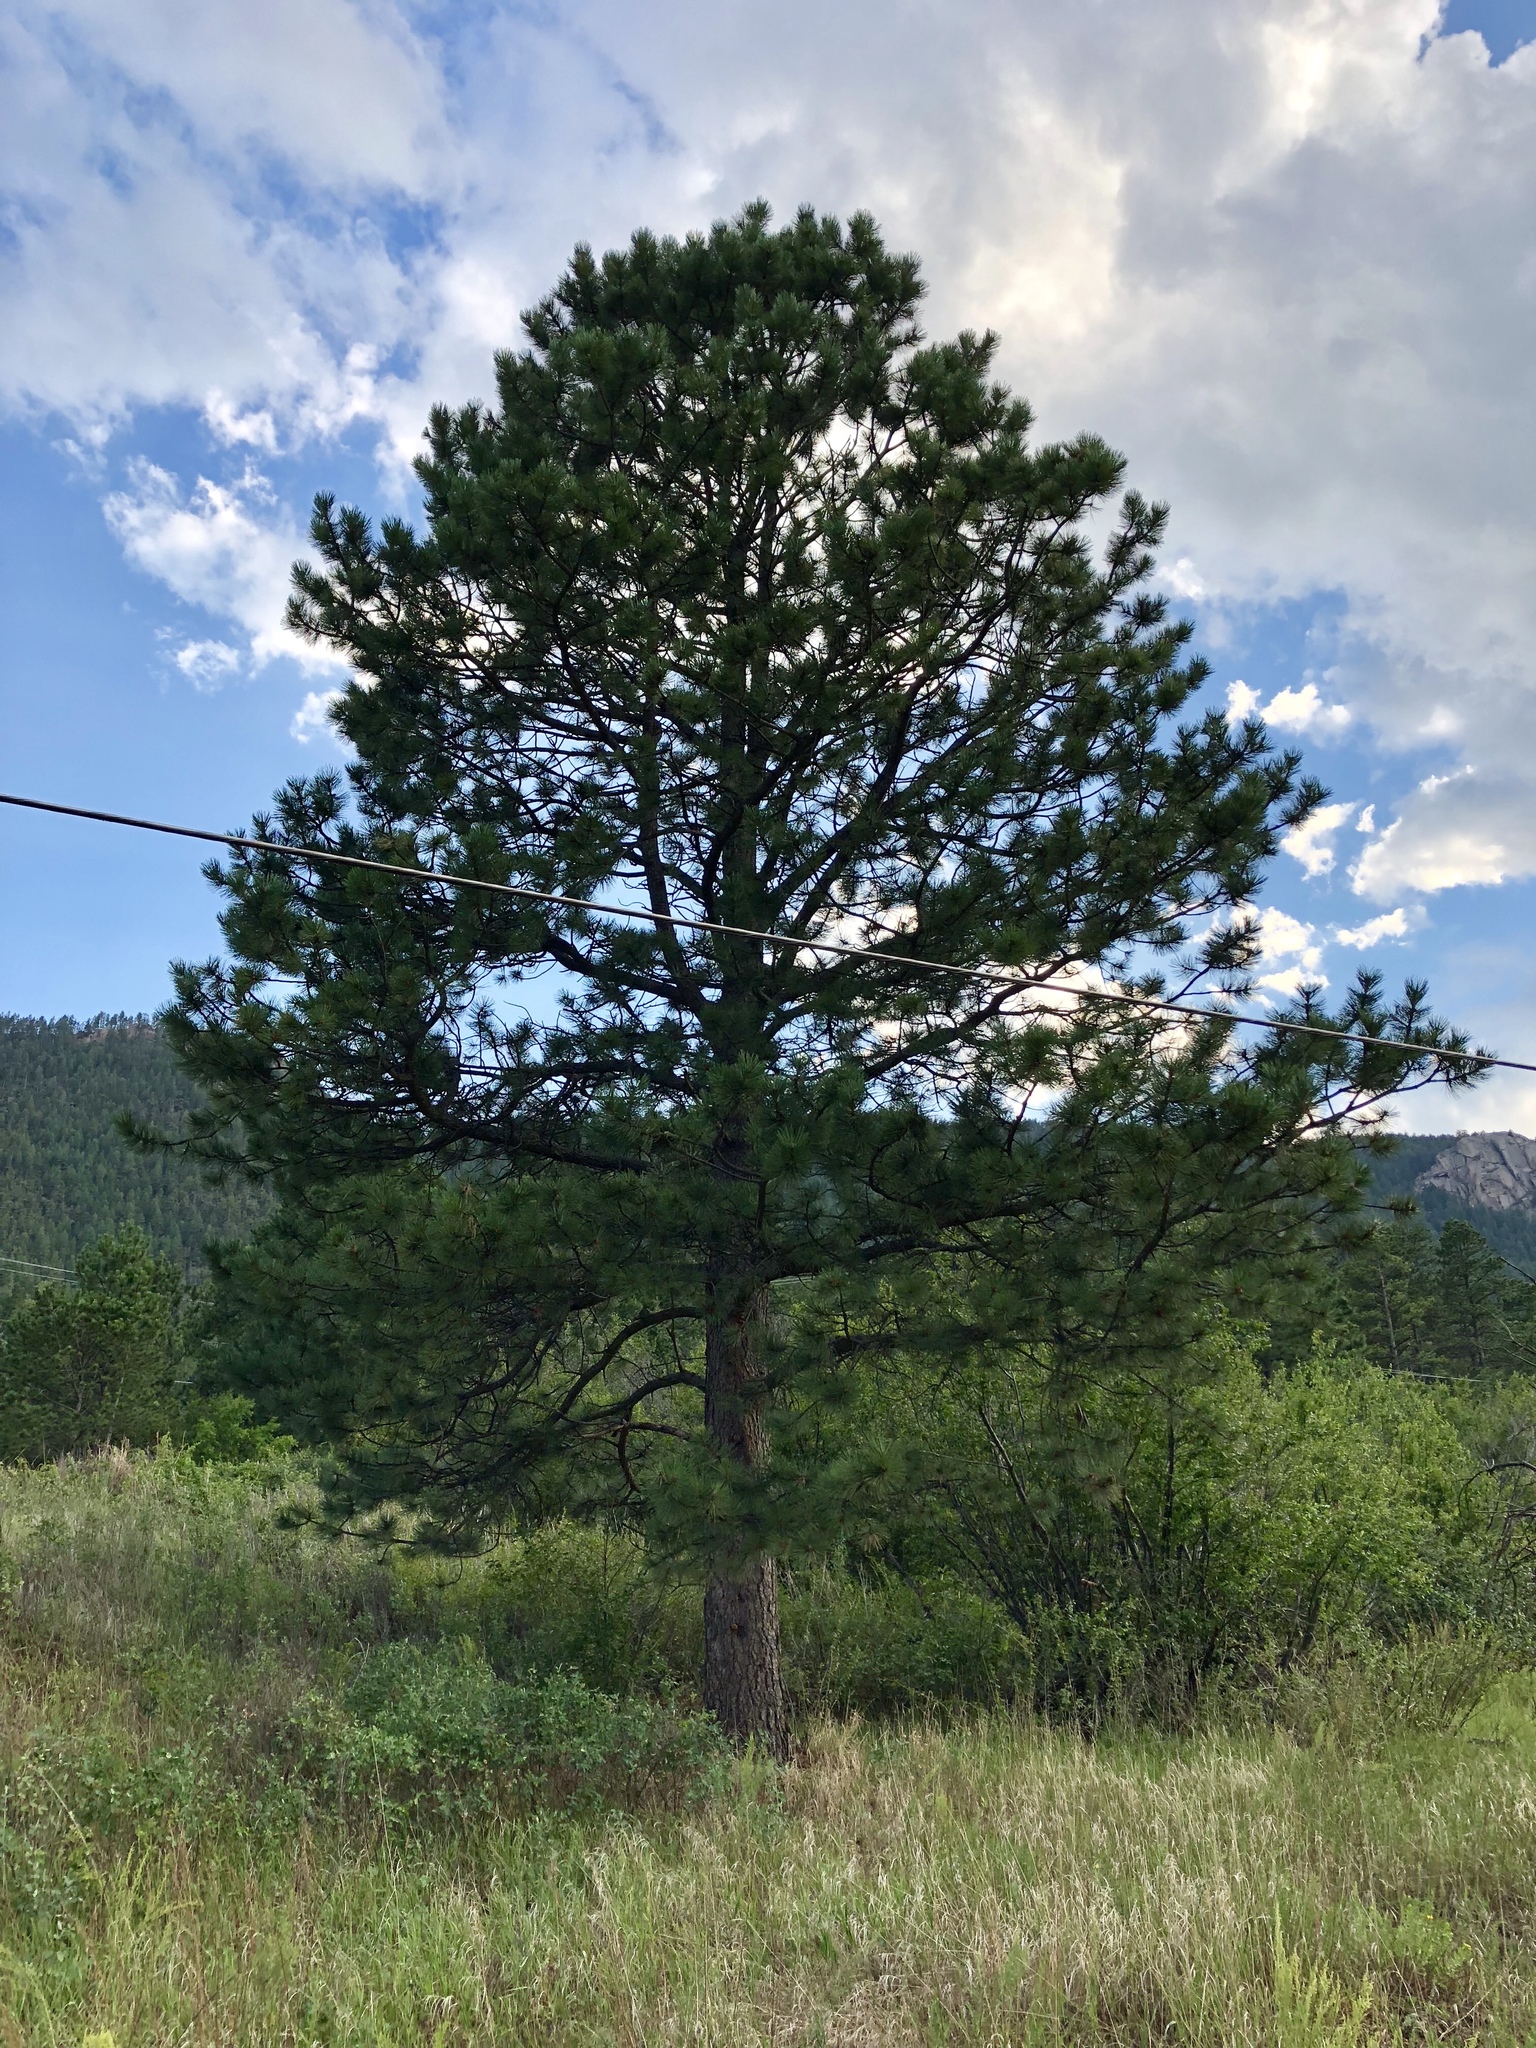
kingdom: Plantae
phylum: Tracheophyta
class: Pinopsida
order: Pinales
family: Pinaceae
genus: Pinus
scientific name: Pinus ponderosa
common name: Western yellow-pine
